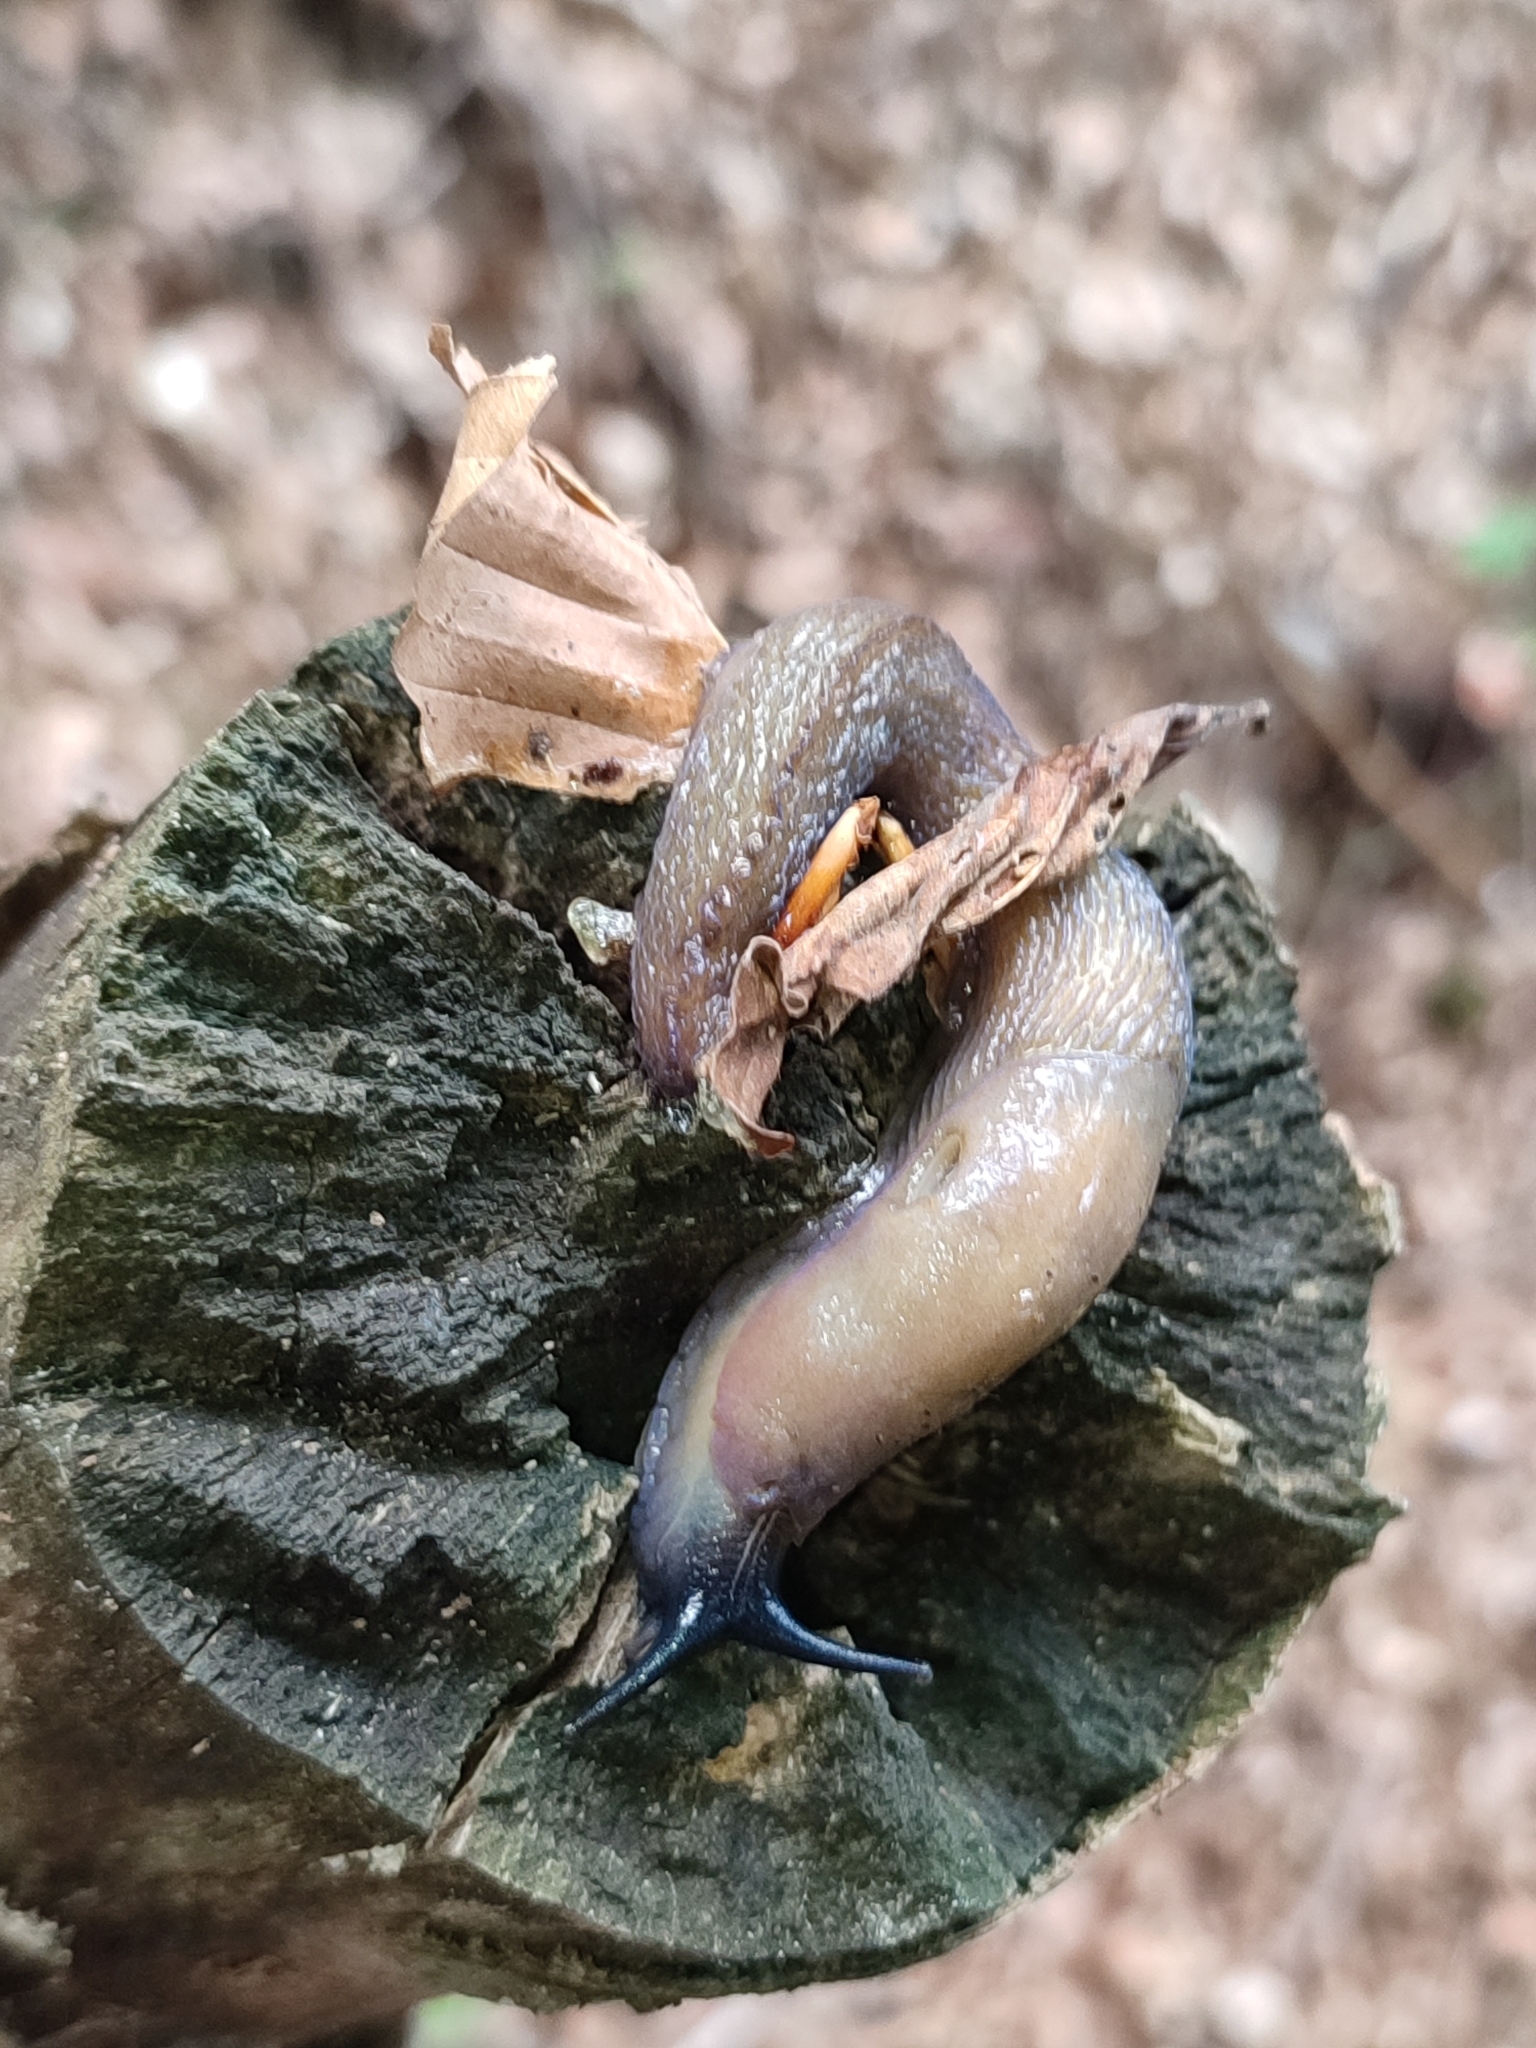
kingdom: Animalia
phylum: Mollusca
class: Gastropoda
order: Stylommatophora
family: Limacidae
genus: Bielzia
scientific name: Bielzia coerulans
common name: Carpathian blue slug
